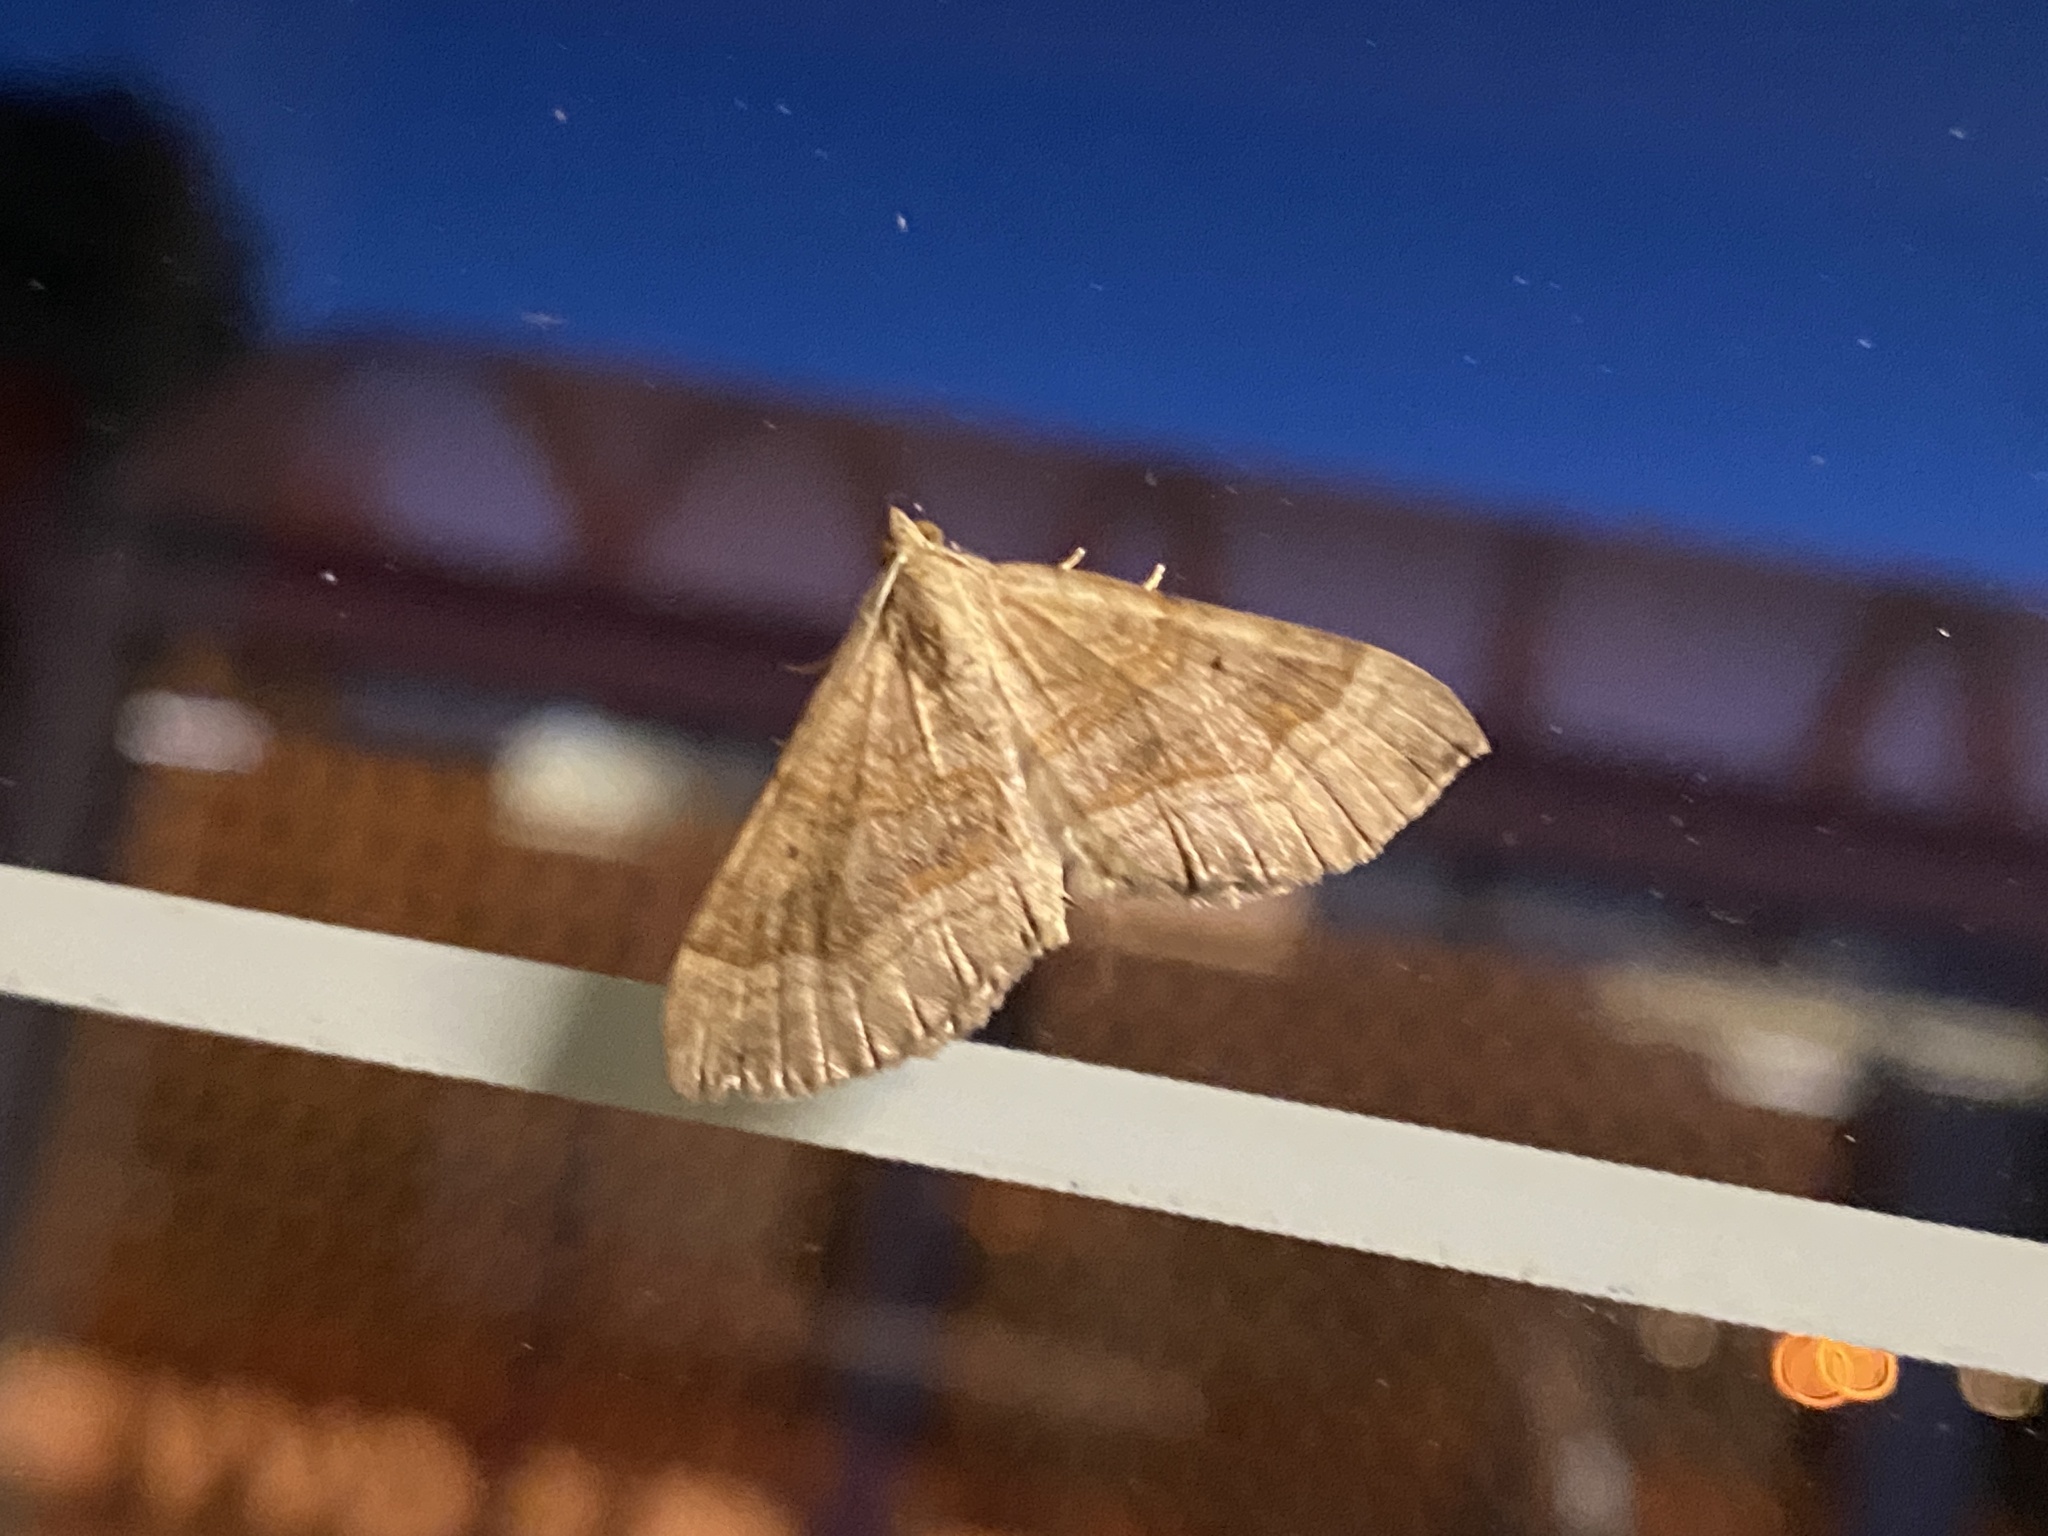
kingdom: Animalia
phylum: Arthropoda
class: Insecta
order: Lepidoptera
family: Geometridae
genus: Scotopteryx
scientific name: Scotopteryx chenopodiata
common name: Shaded broad-bar
